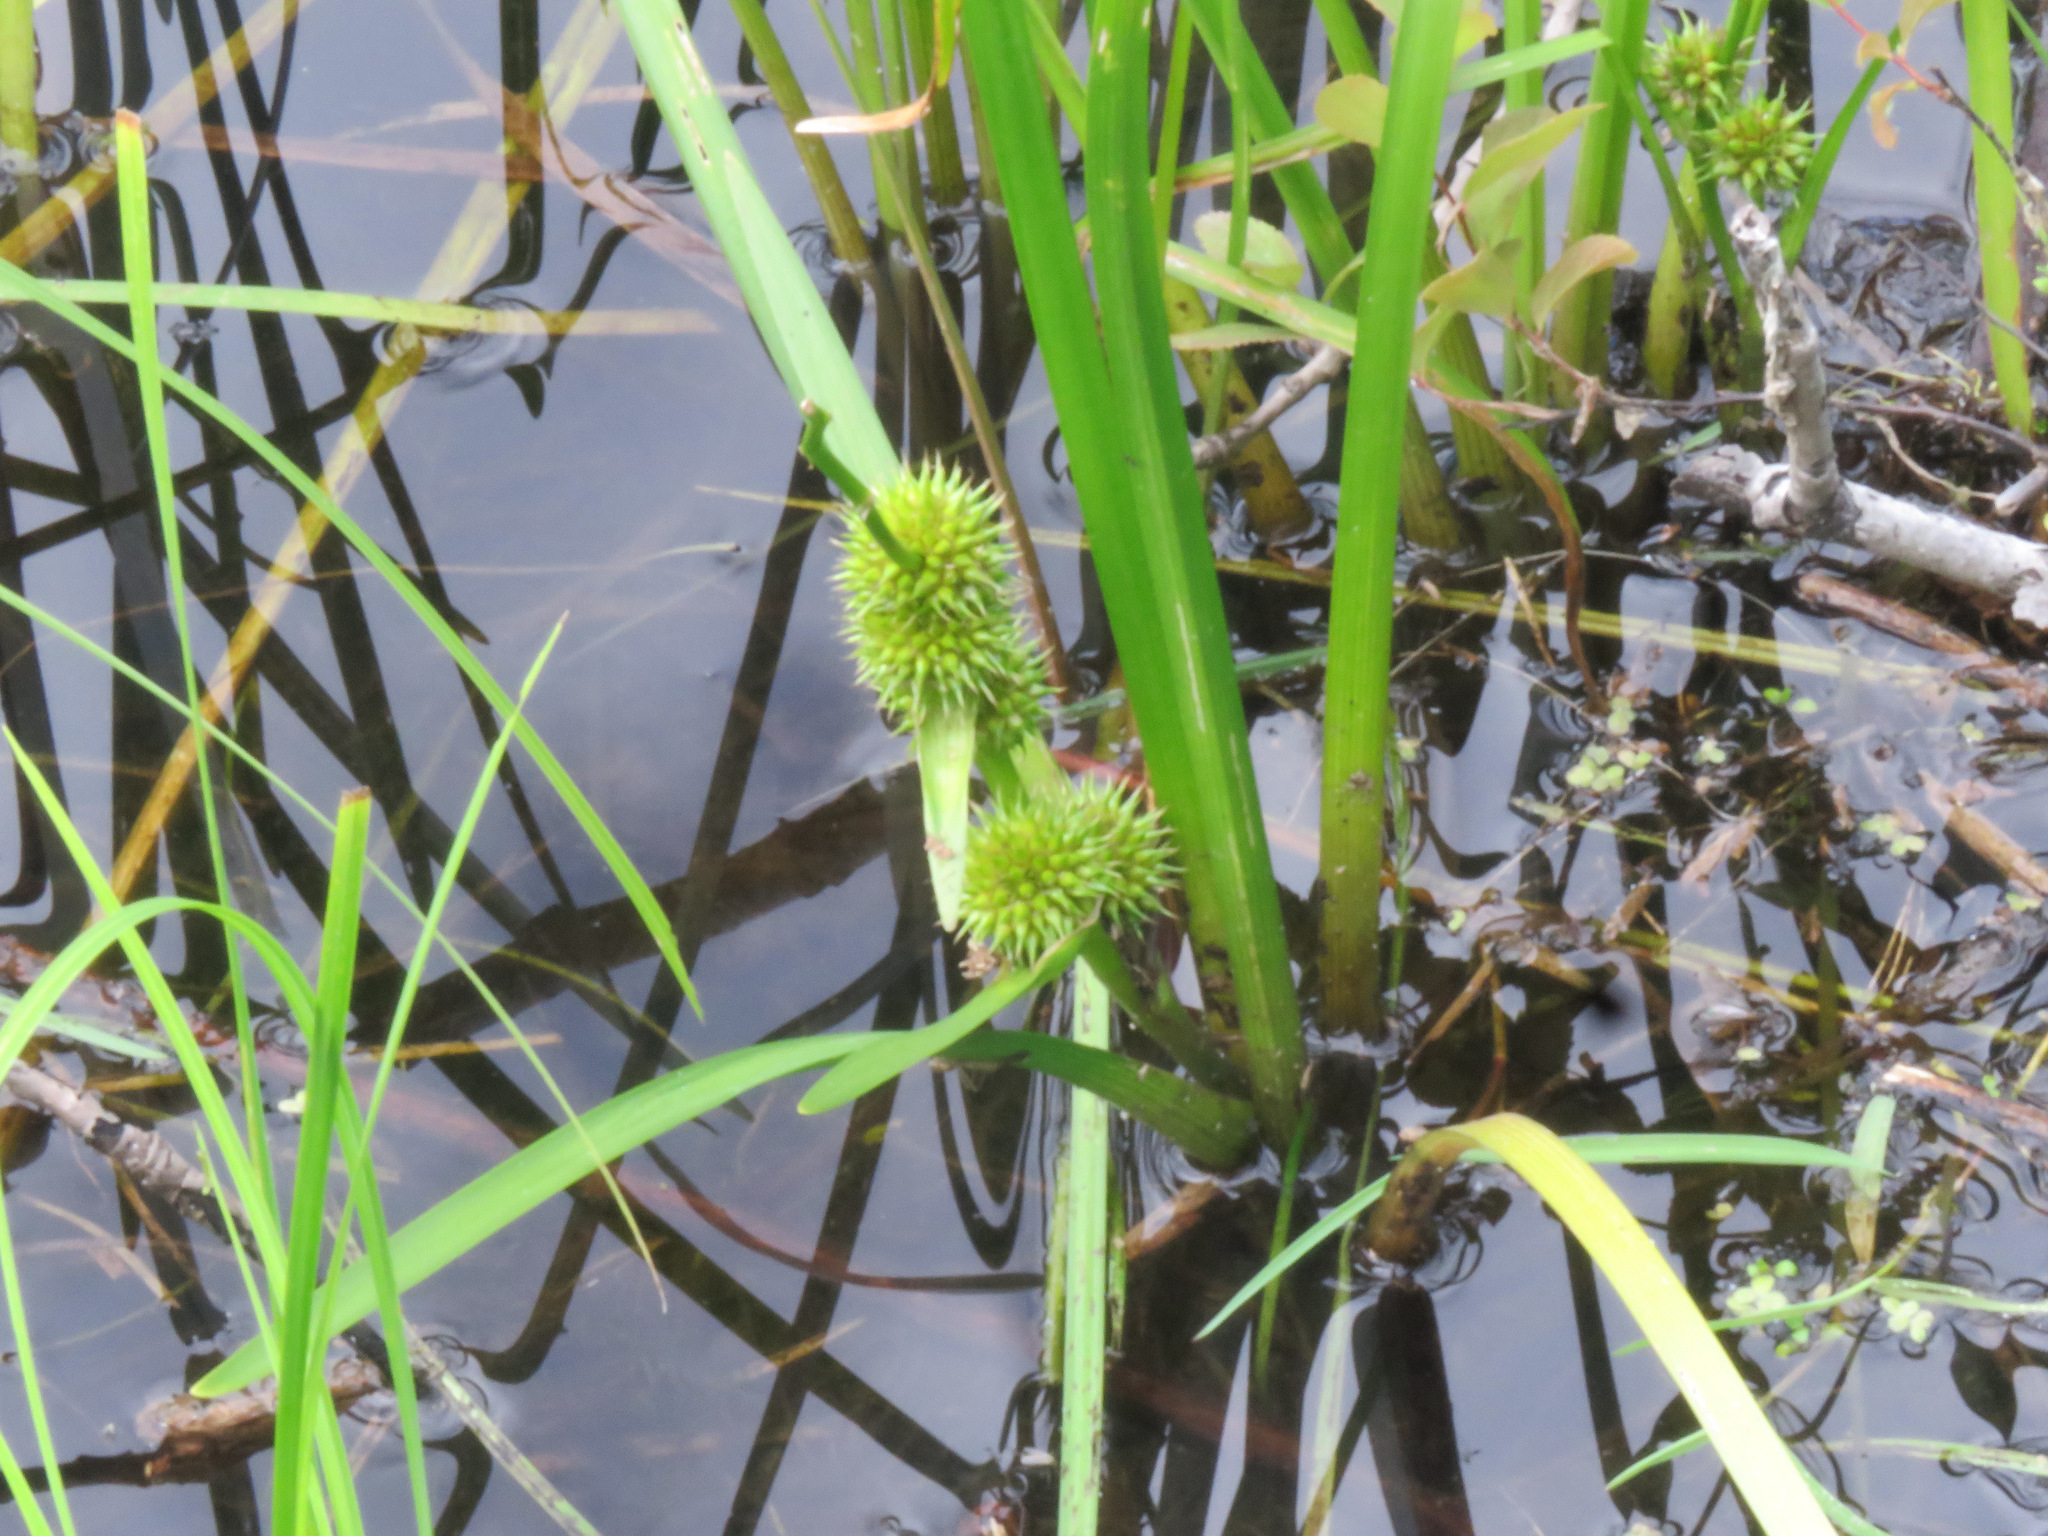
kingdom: Plantae
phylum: Tracheophyta
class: Liliopsida
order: Poales
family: Typhaceae
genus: Sparganium
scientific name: Sparganium americanum
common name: American burreed
